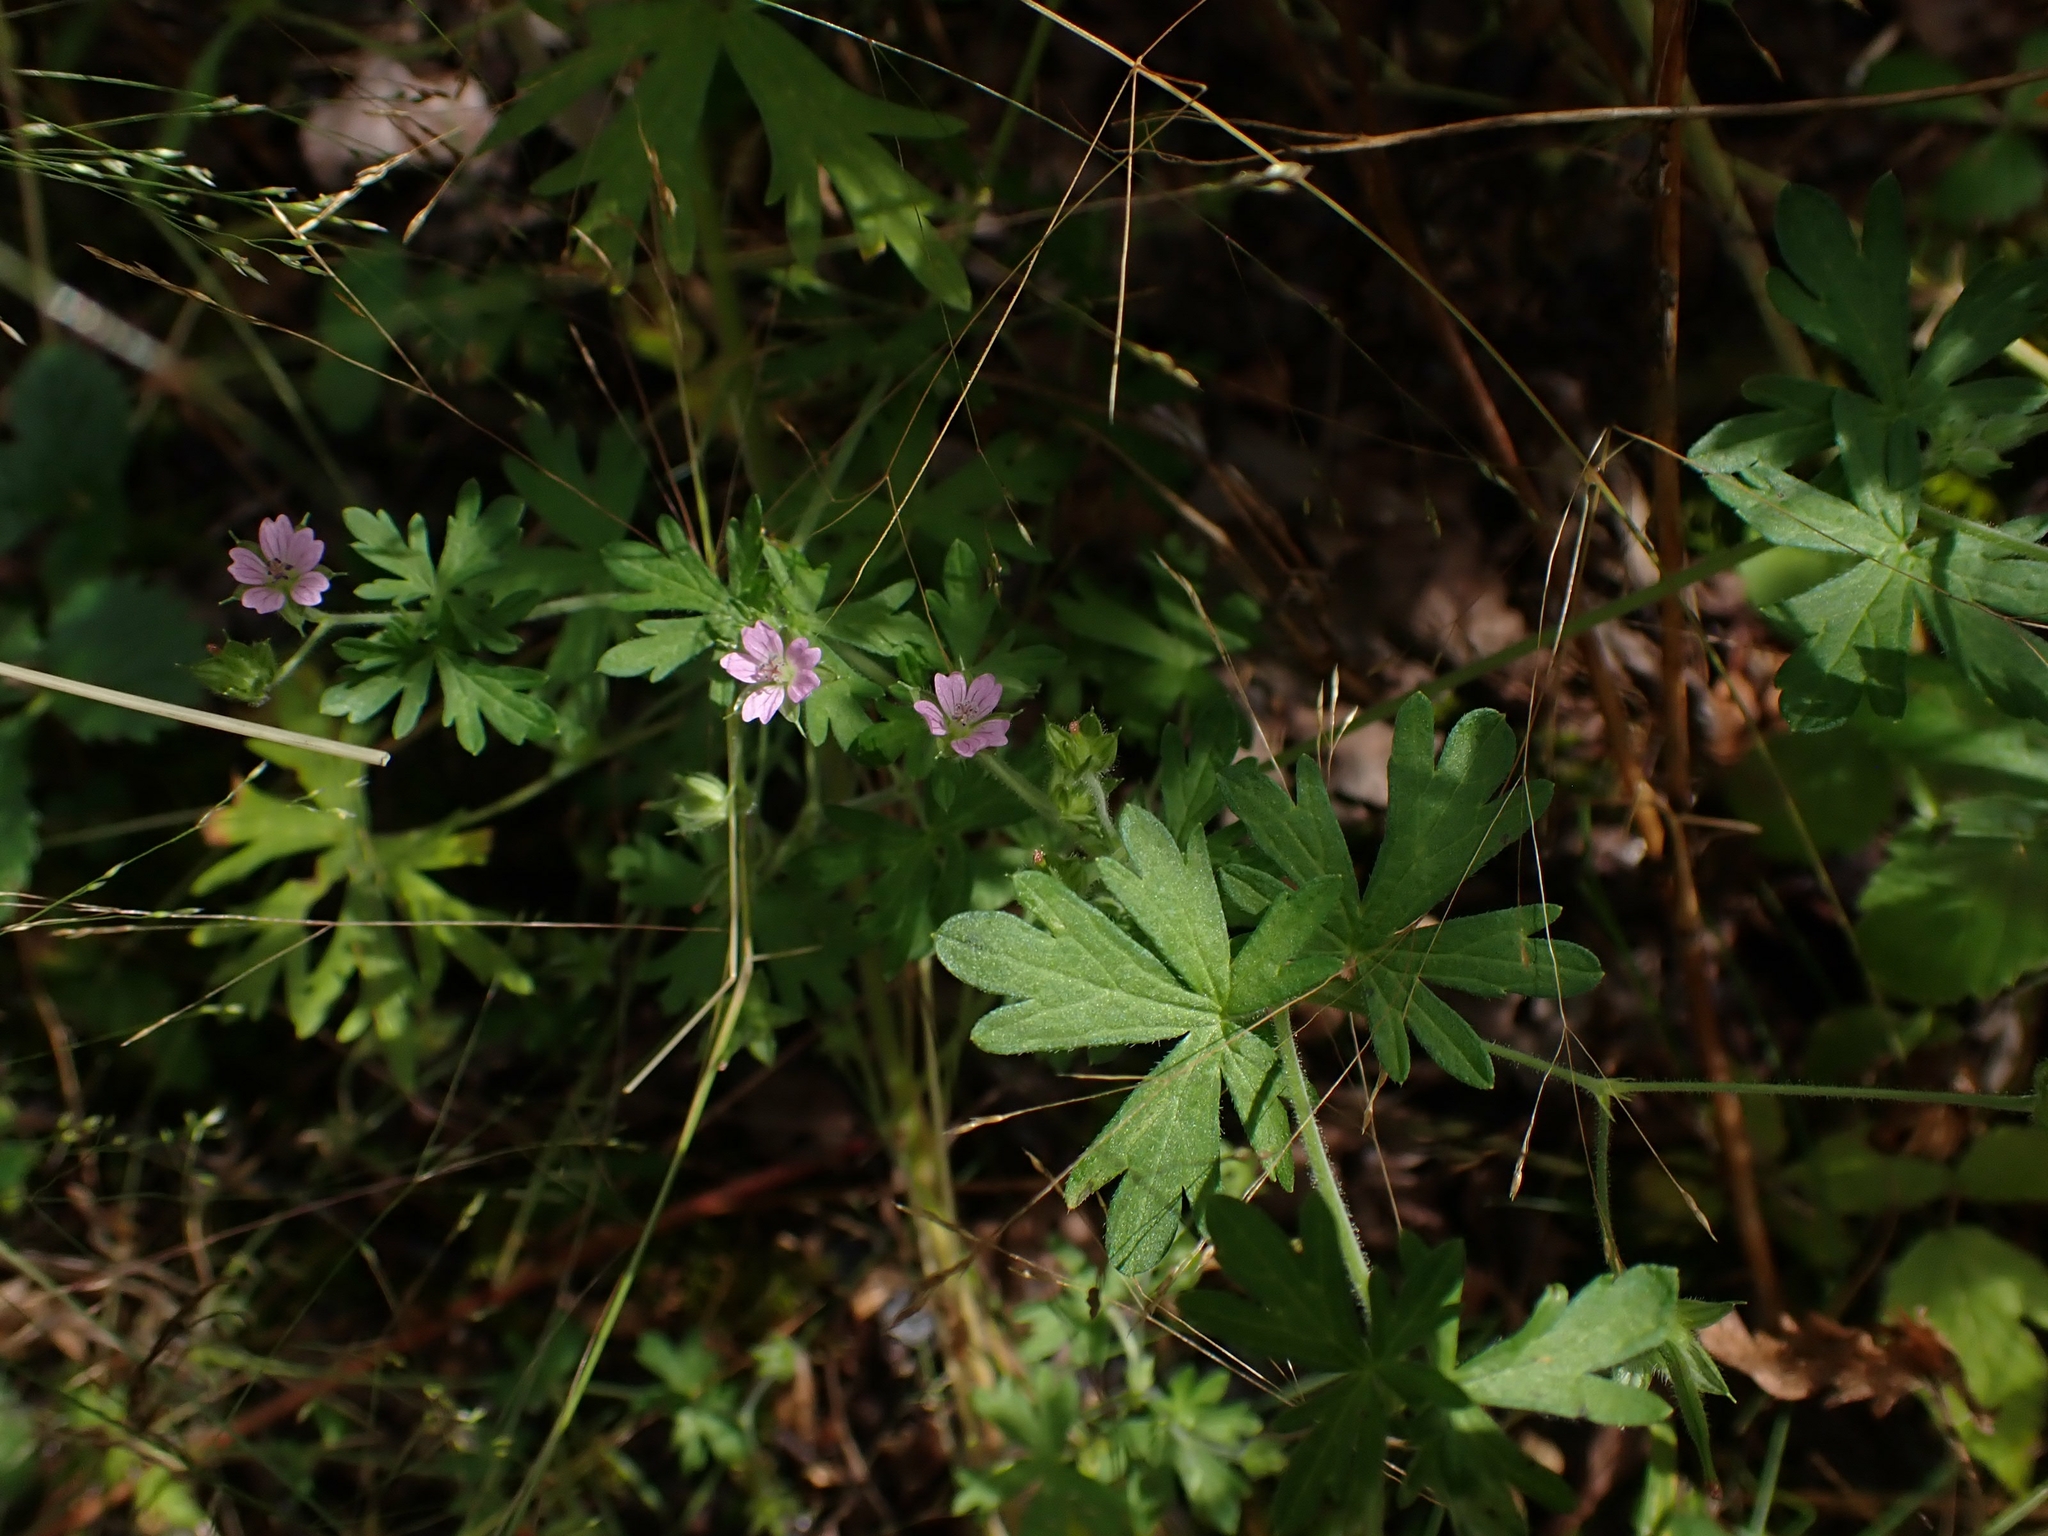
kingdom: Plantae
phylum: Tracheophyta
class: Magnoliopsida
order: Geraniales
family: Geraniaceae
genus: Geranium
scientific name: Geranium bicknellii
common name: Bicknell's cranesbill
